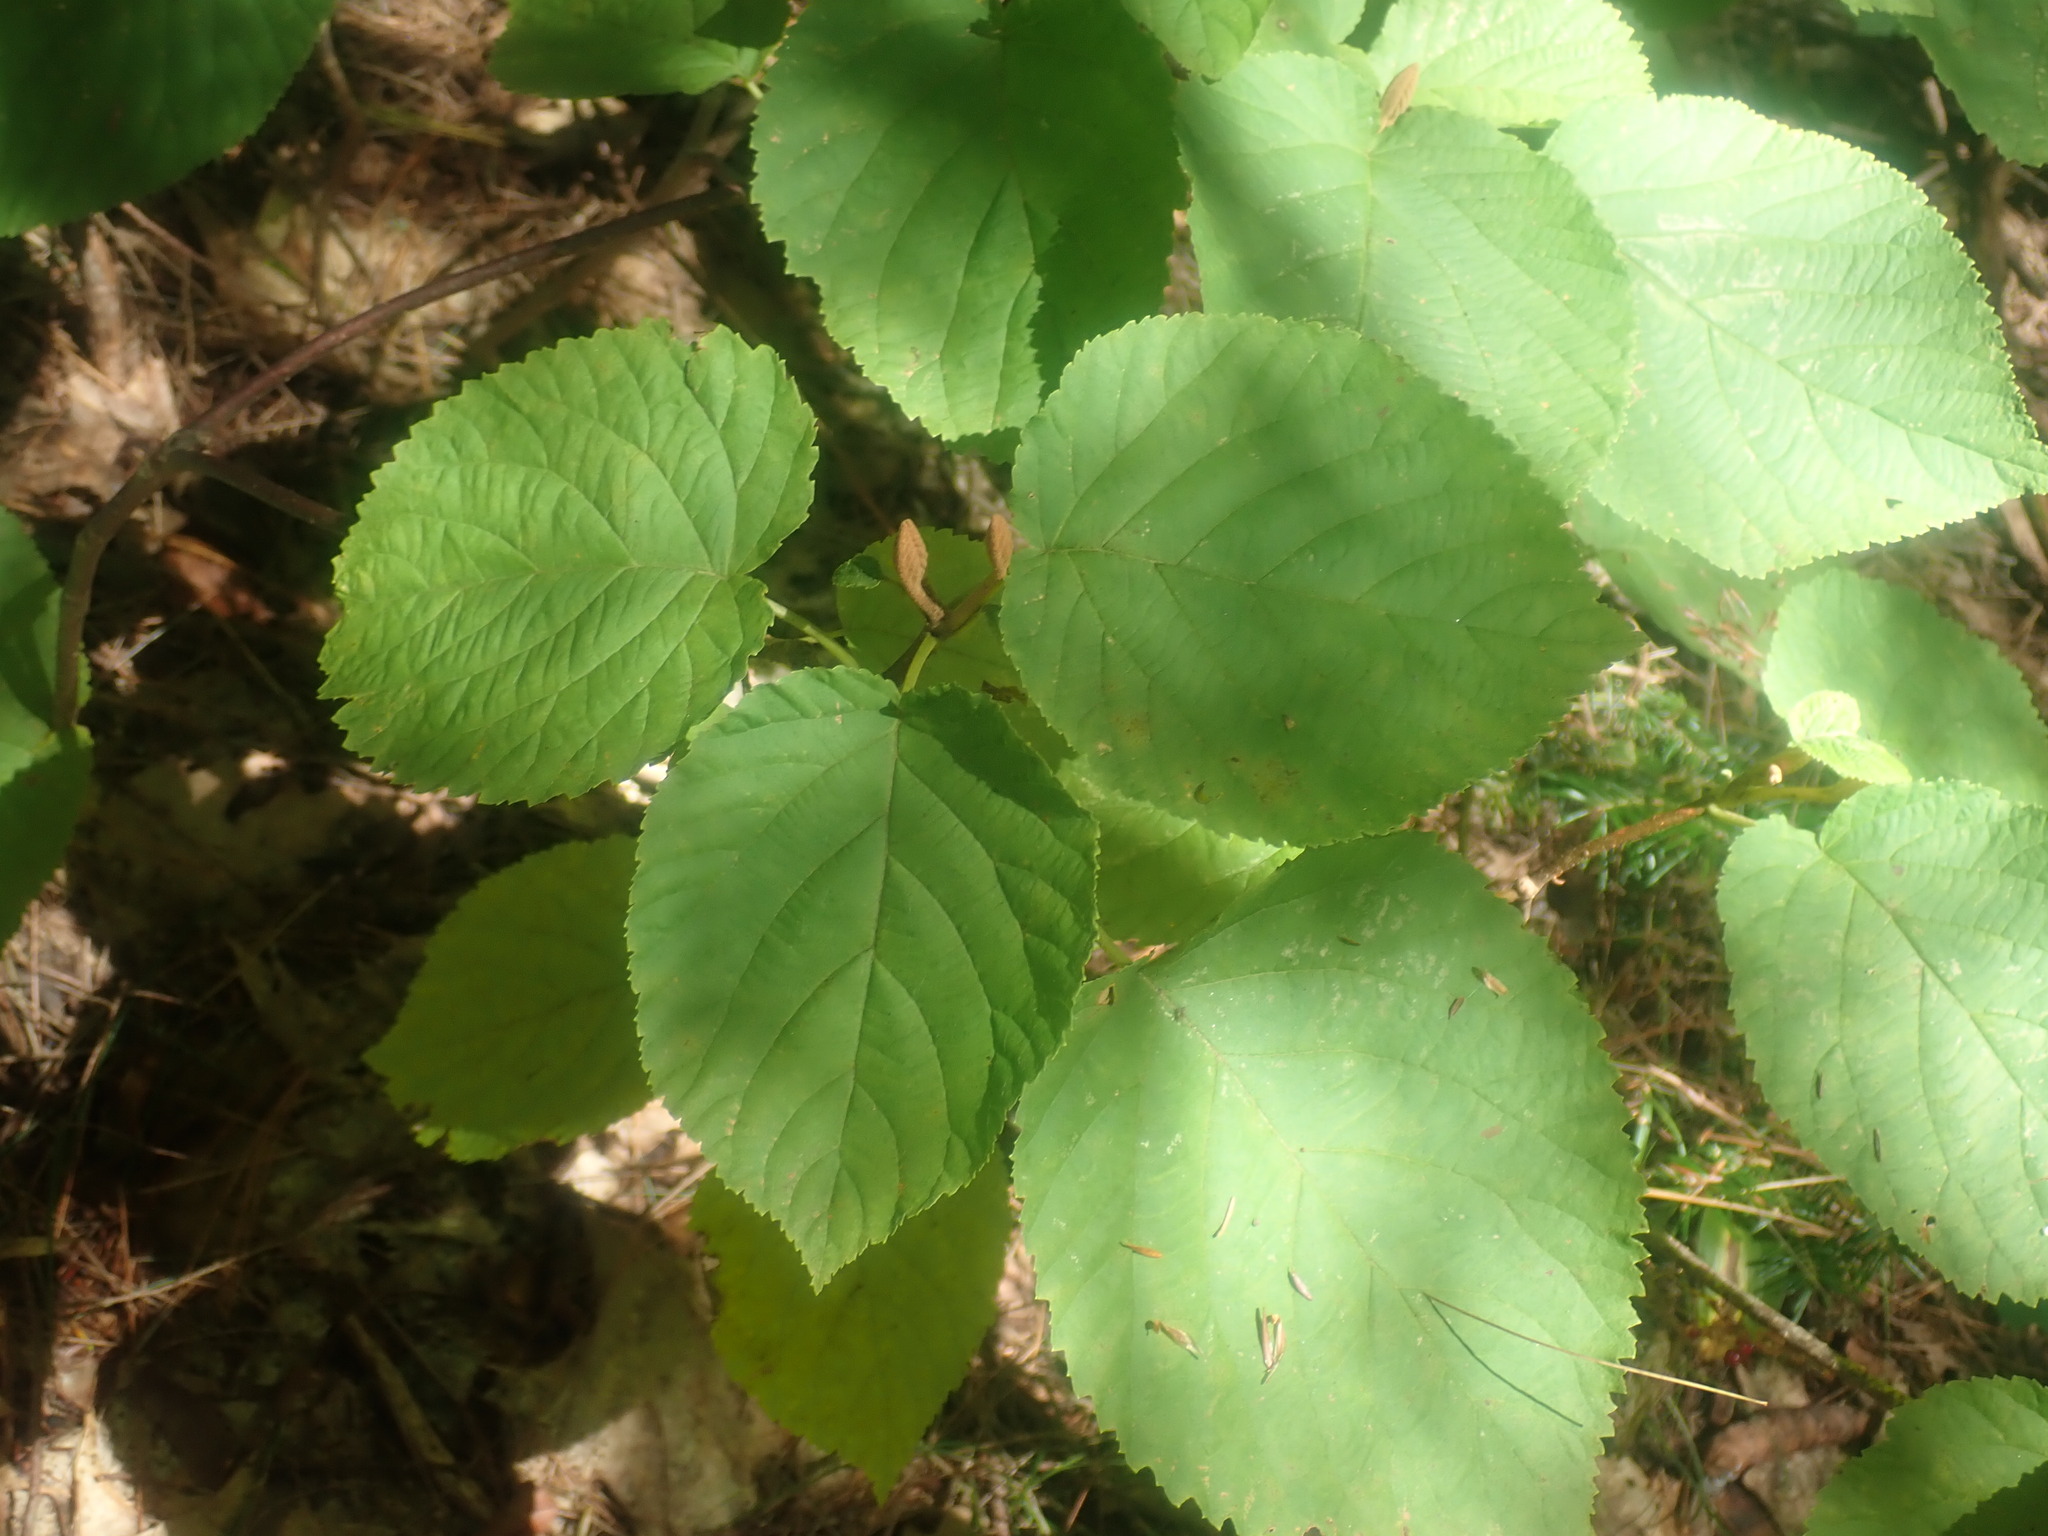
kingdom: Plantae
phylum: Tracheophyta
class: Magnoliopsida
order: Dipsacales
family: Viburnaceae
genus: Viburnum
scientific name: Viburnum lantanoides
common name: Hobblebush
